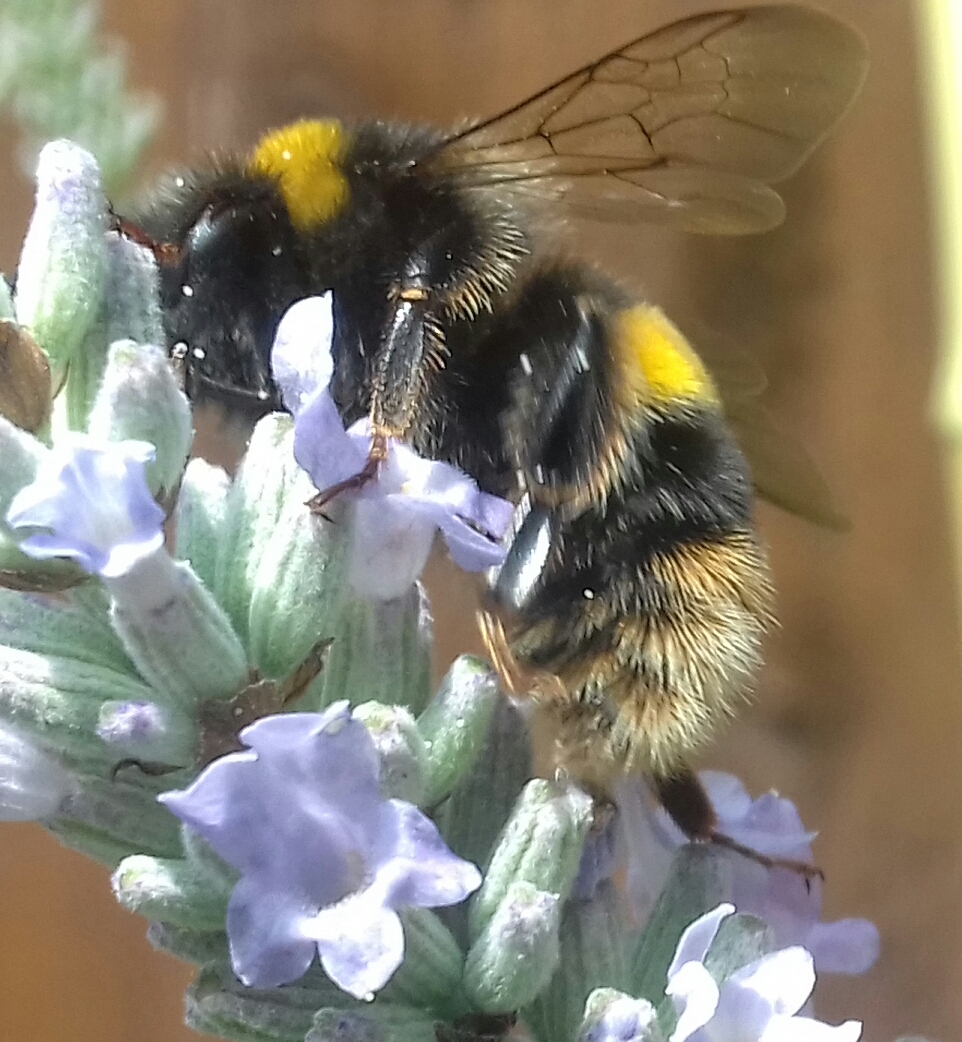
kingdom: Animalia
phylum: Arthropoda
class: Insecta
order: Hymenoptera
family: Apidae
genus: Bombus
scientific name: Bombus terrestris
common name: Buff-tailed bumblebee
